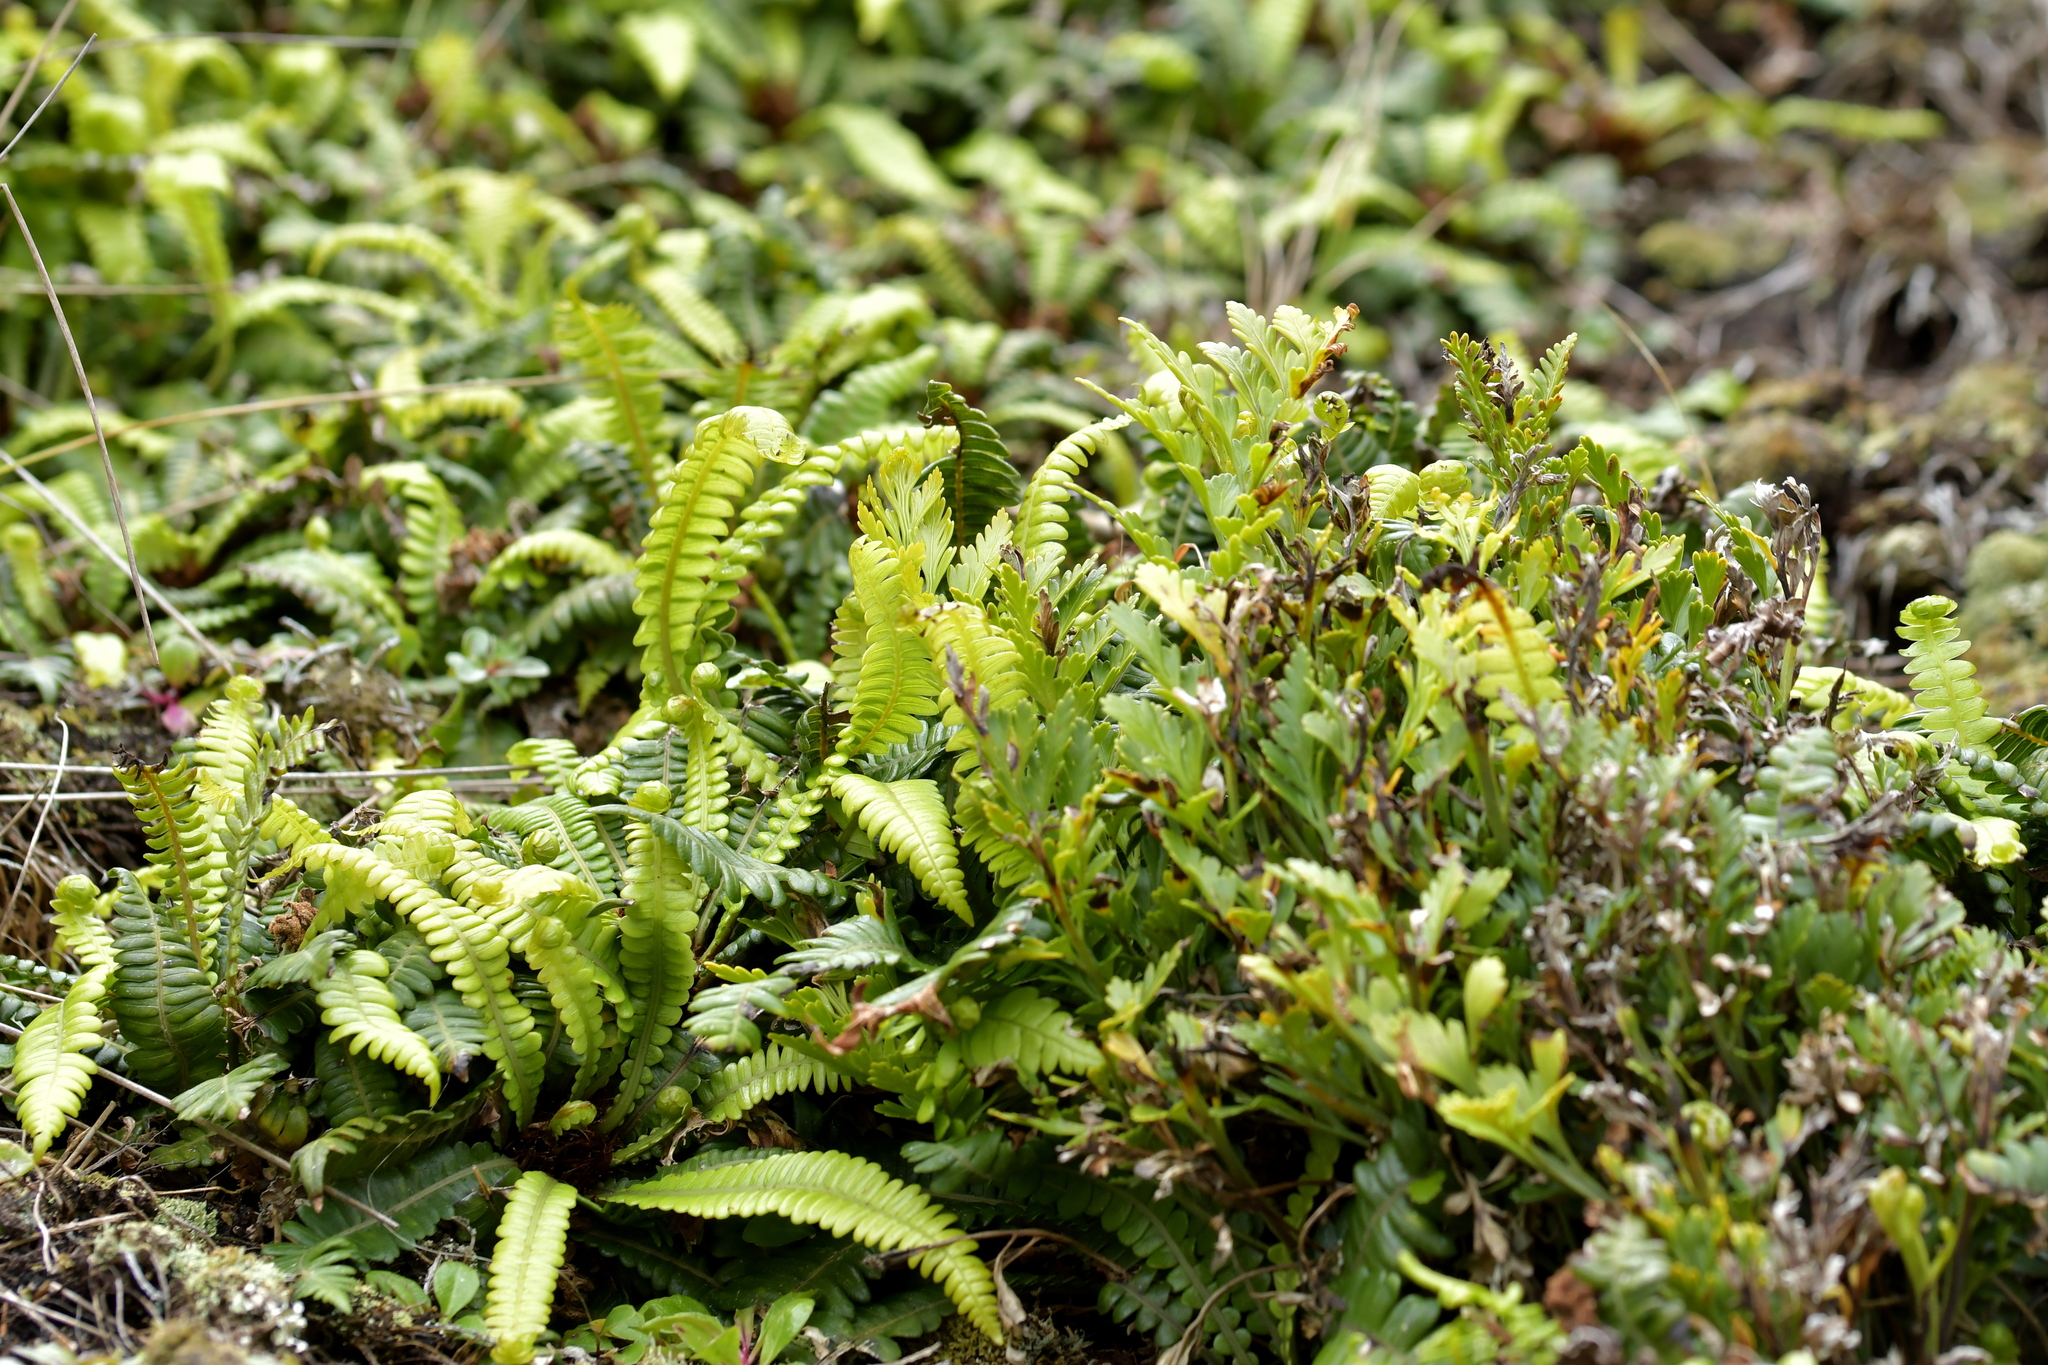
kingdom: Plantae
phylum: Tracheophyta
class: Polypodiopsida
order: Polypodiales
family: Aspleniaceae
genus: Asplenium
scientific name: Asplenium chathamense
